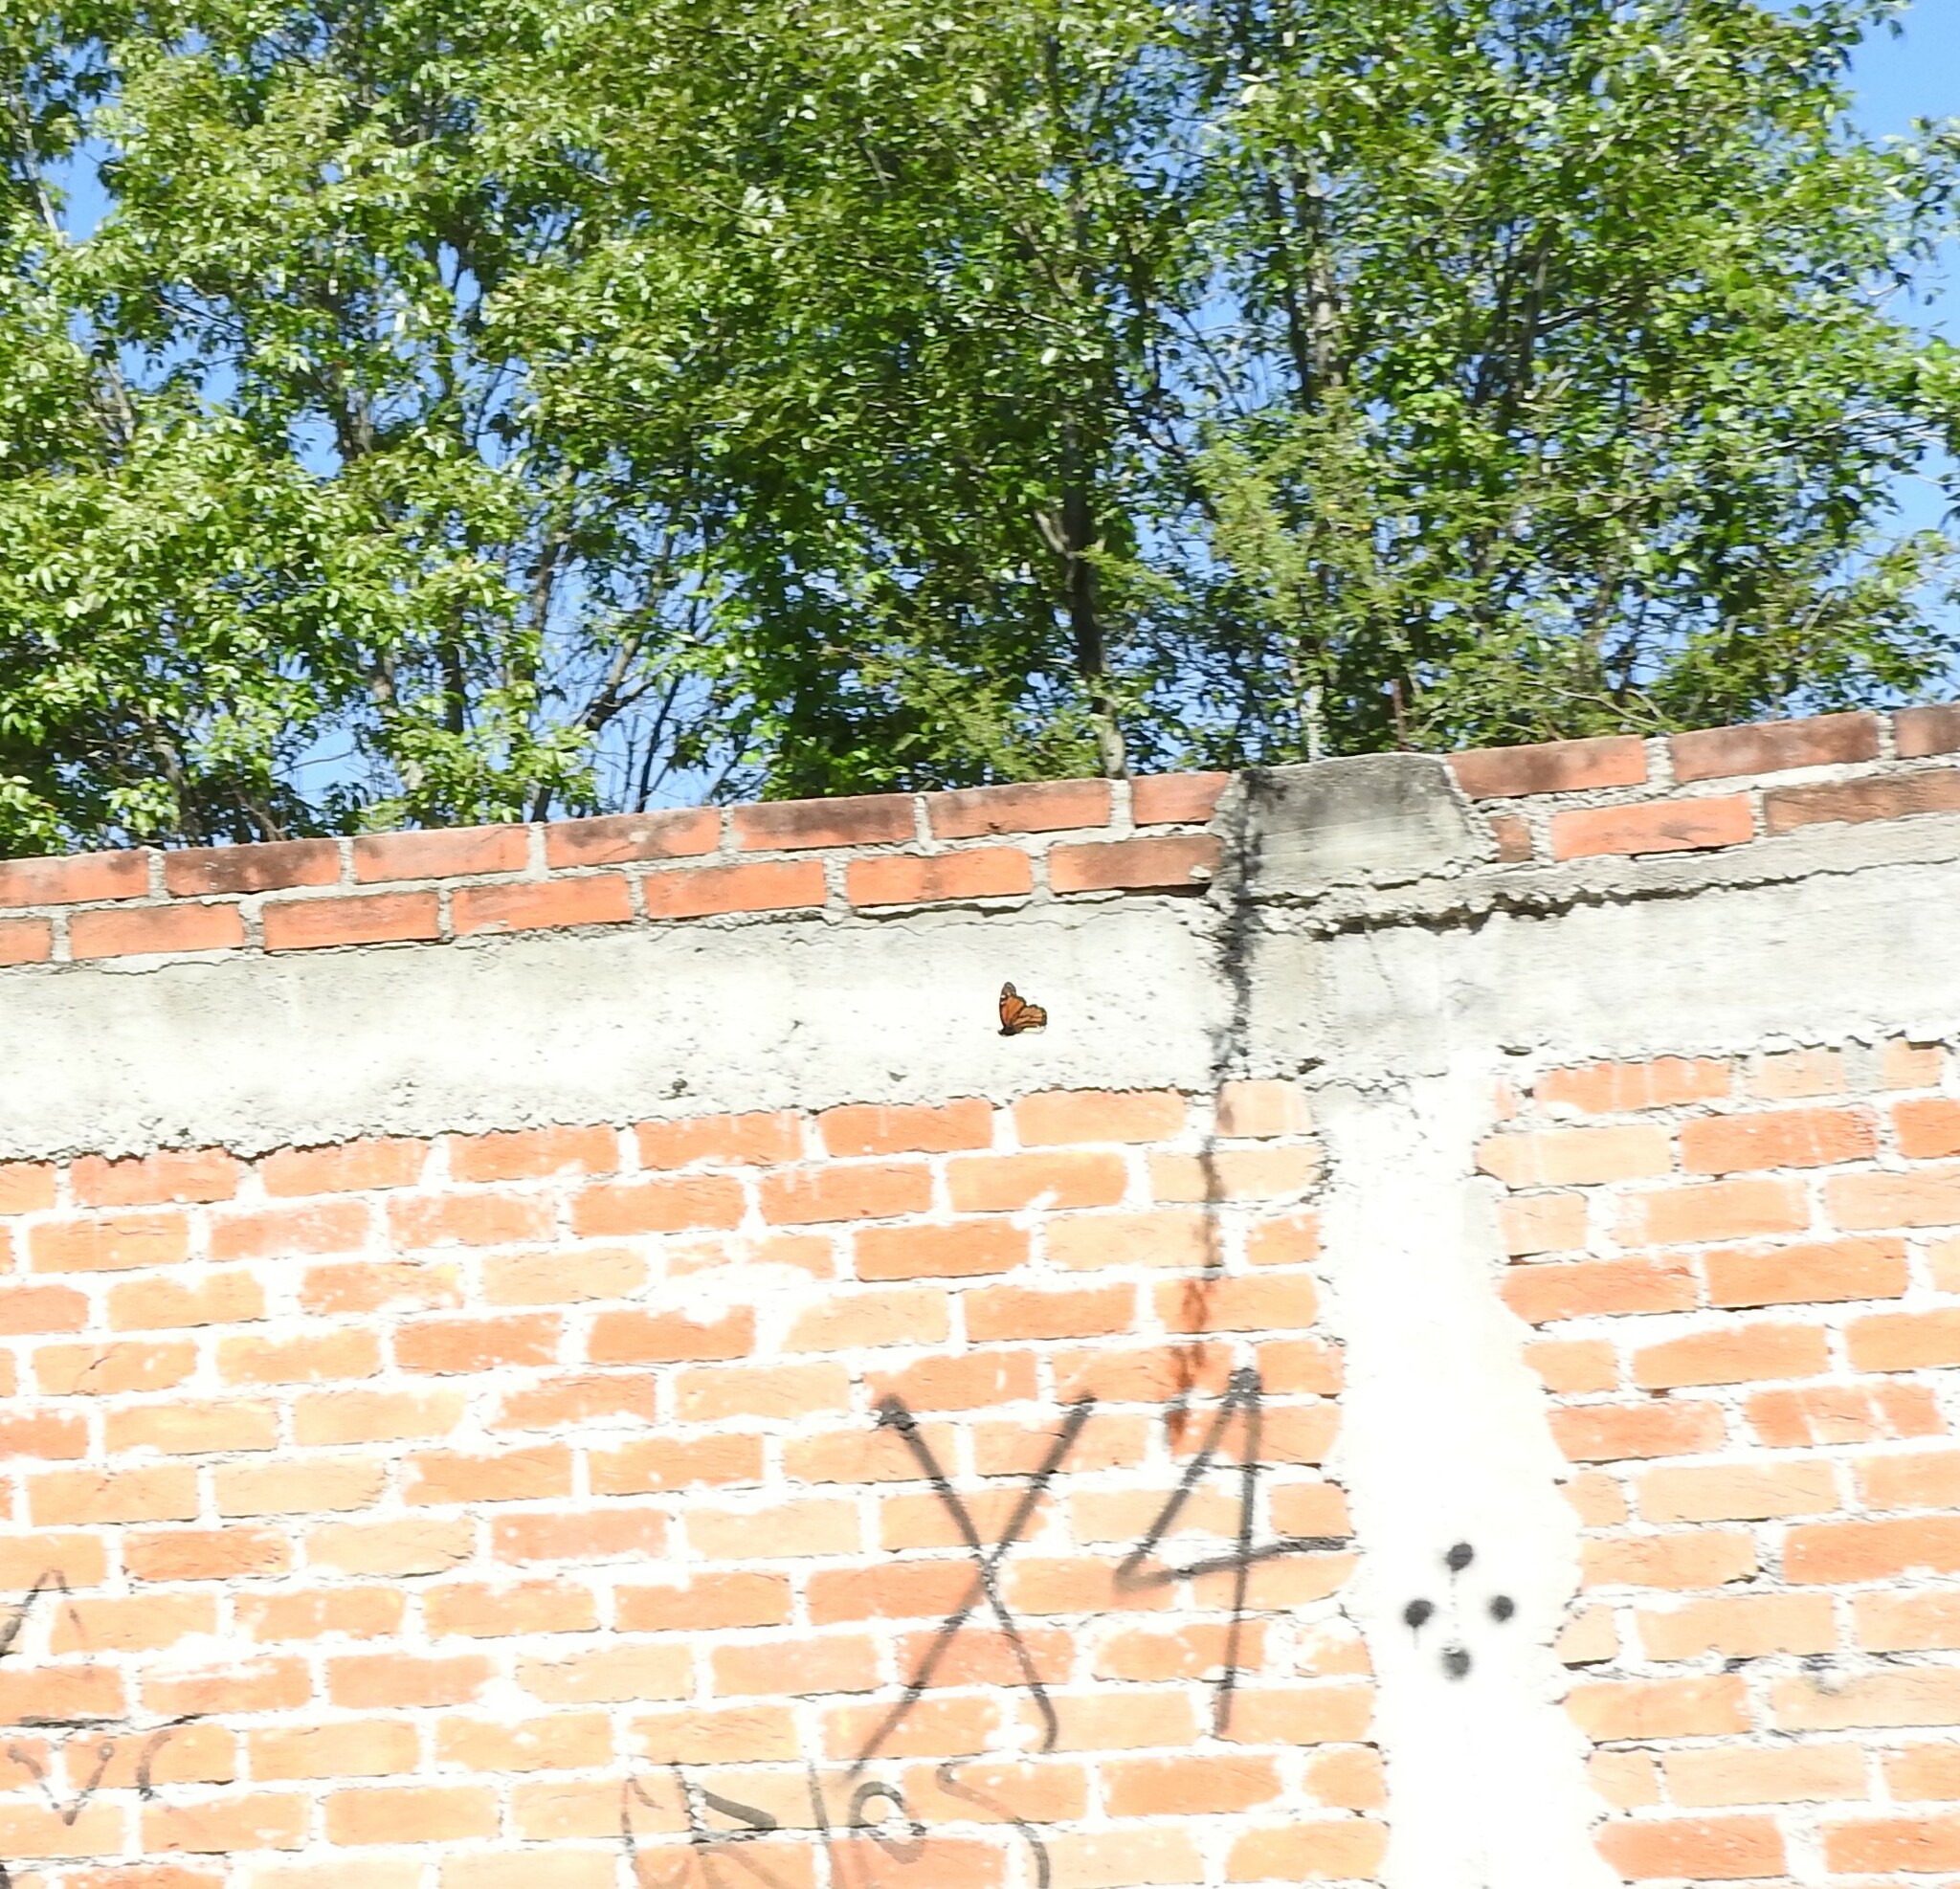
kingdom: Animalia
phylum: Arthropoda
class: Insecta
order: Lepidoptera
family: Nymphalidae
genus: Danaus
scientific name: Danaus plexippus
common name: Monarch
